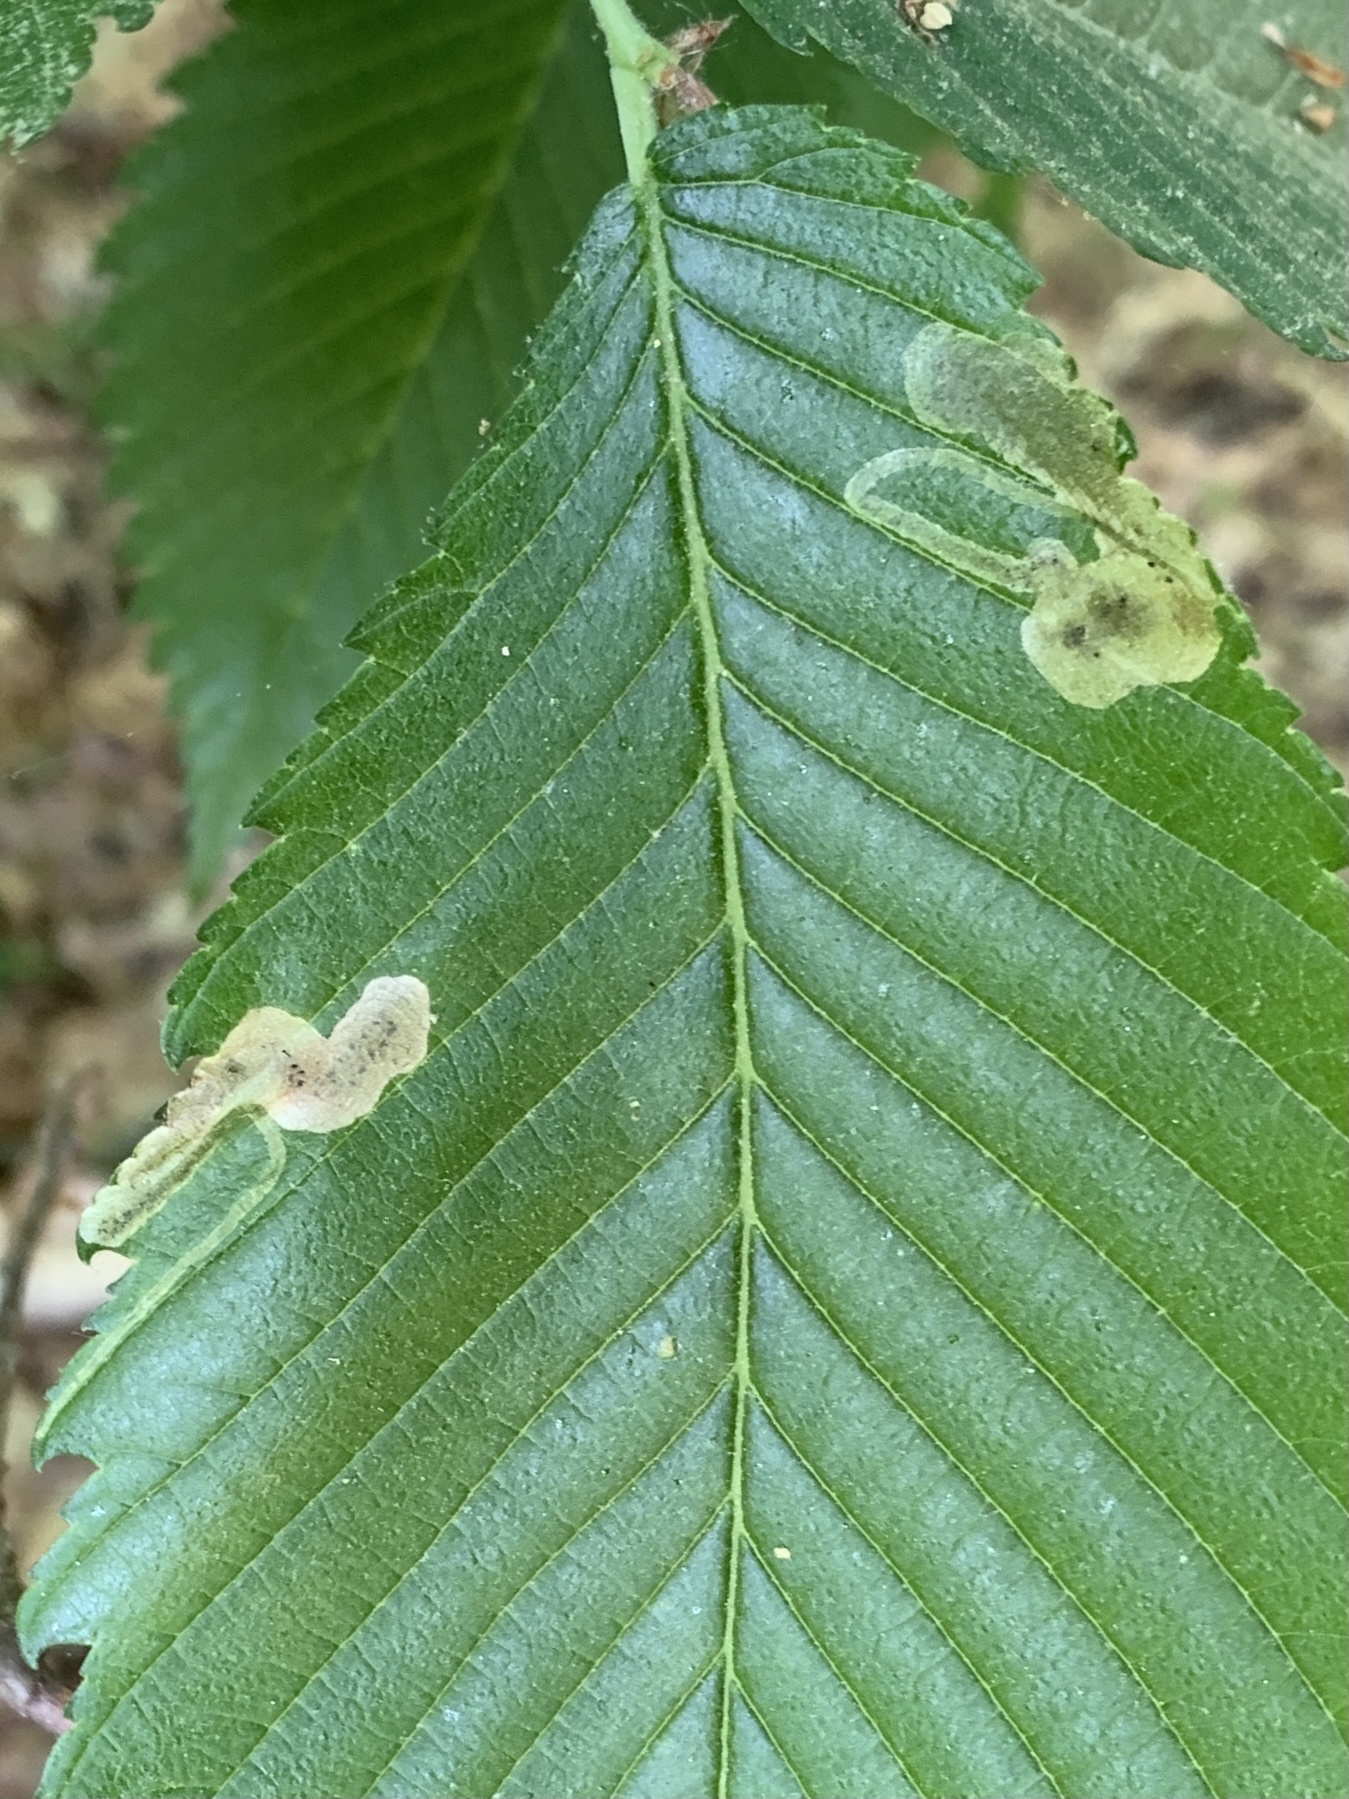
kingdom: Animalia
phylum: Arthropoda
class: Insecta
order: Diptera
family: Agromyzidae
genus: Agromyza
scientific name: Agromyza aristata
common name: Elm agromyzid leafminer
